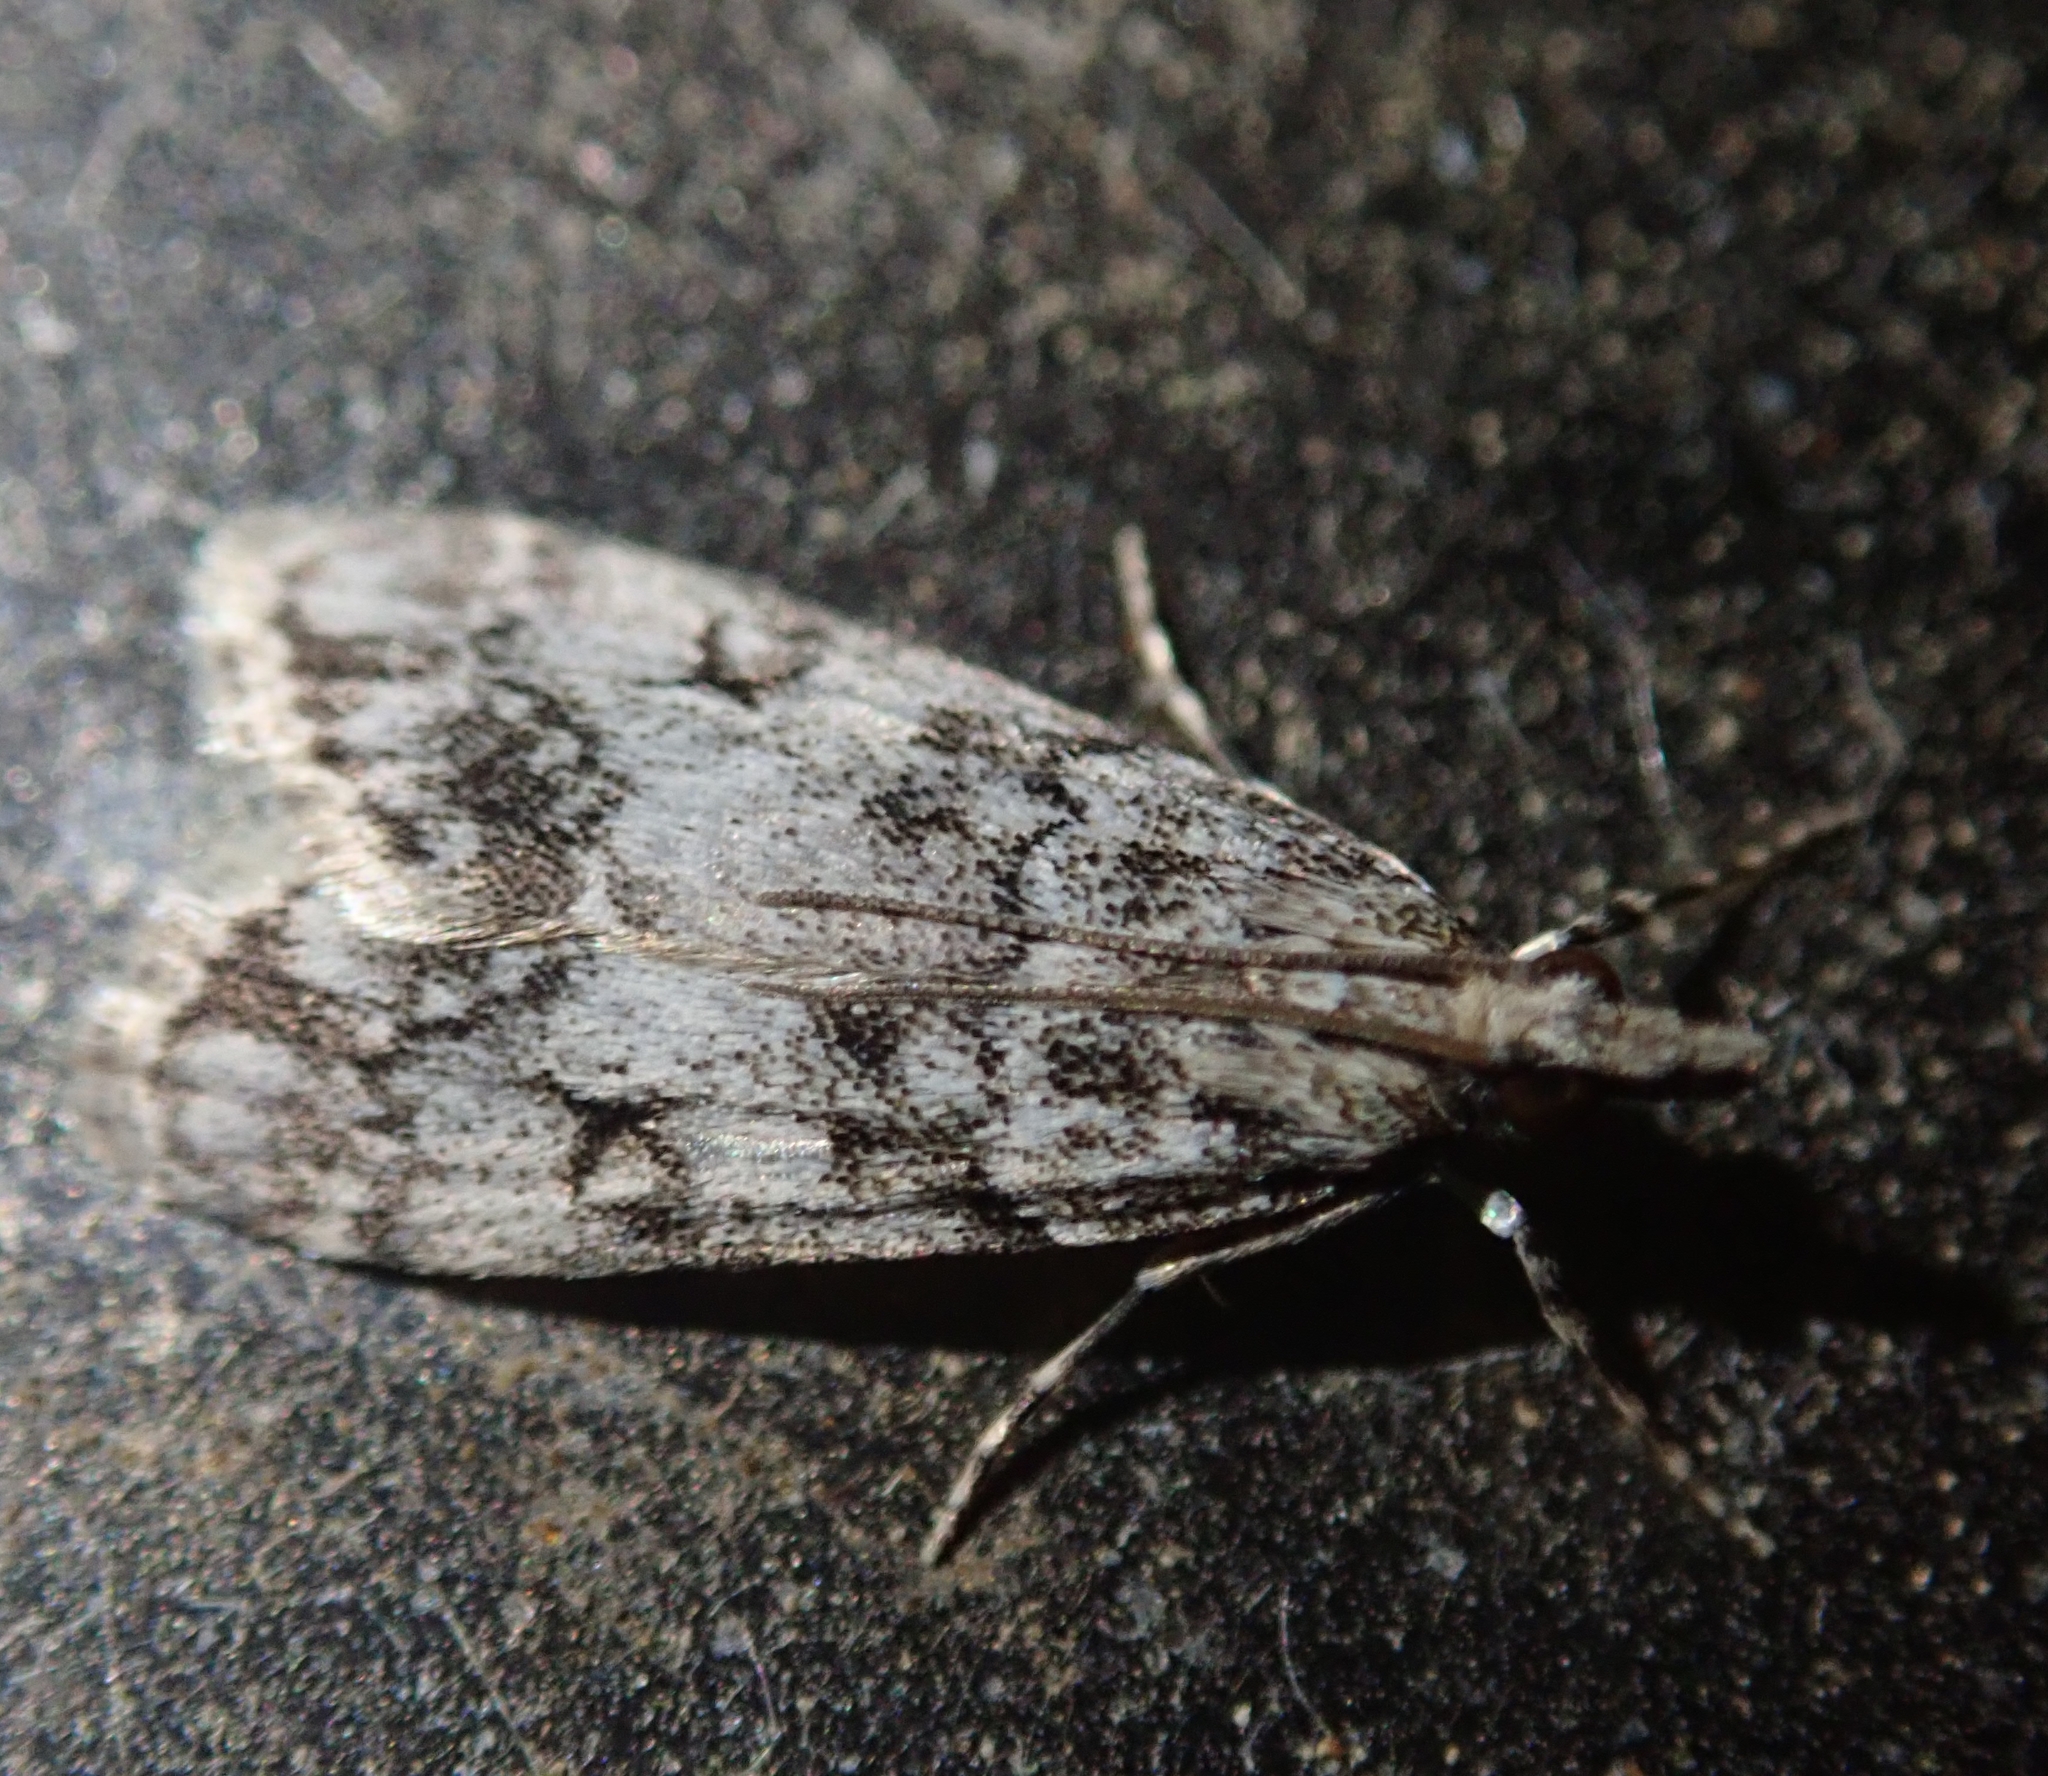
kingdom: Animalia
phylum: Arthropoda
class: Insecta
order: Lepidoptera
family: Crambidae
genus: Eudonia
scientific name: Eudonia lacustrata
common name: Little grey
